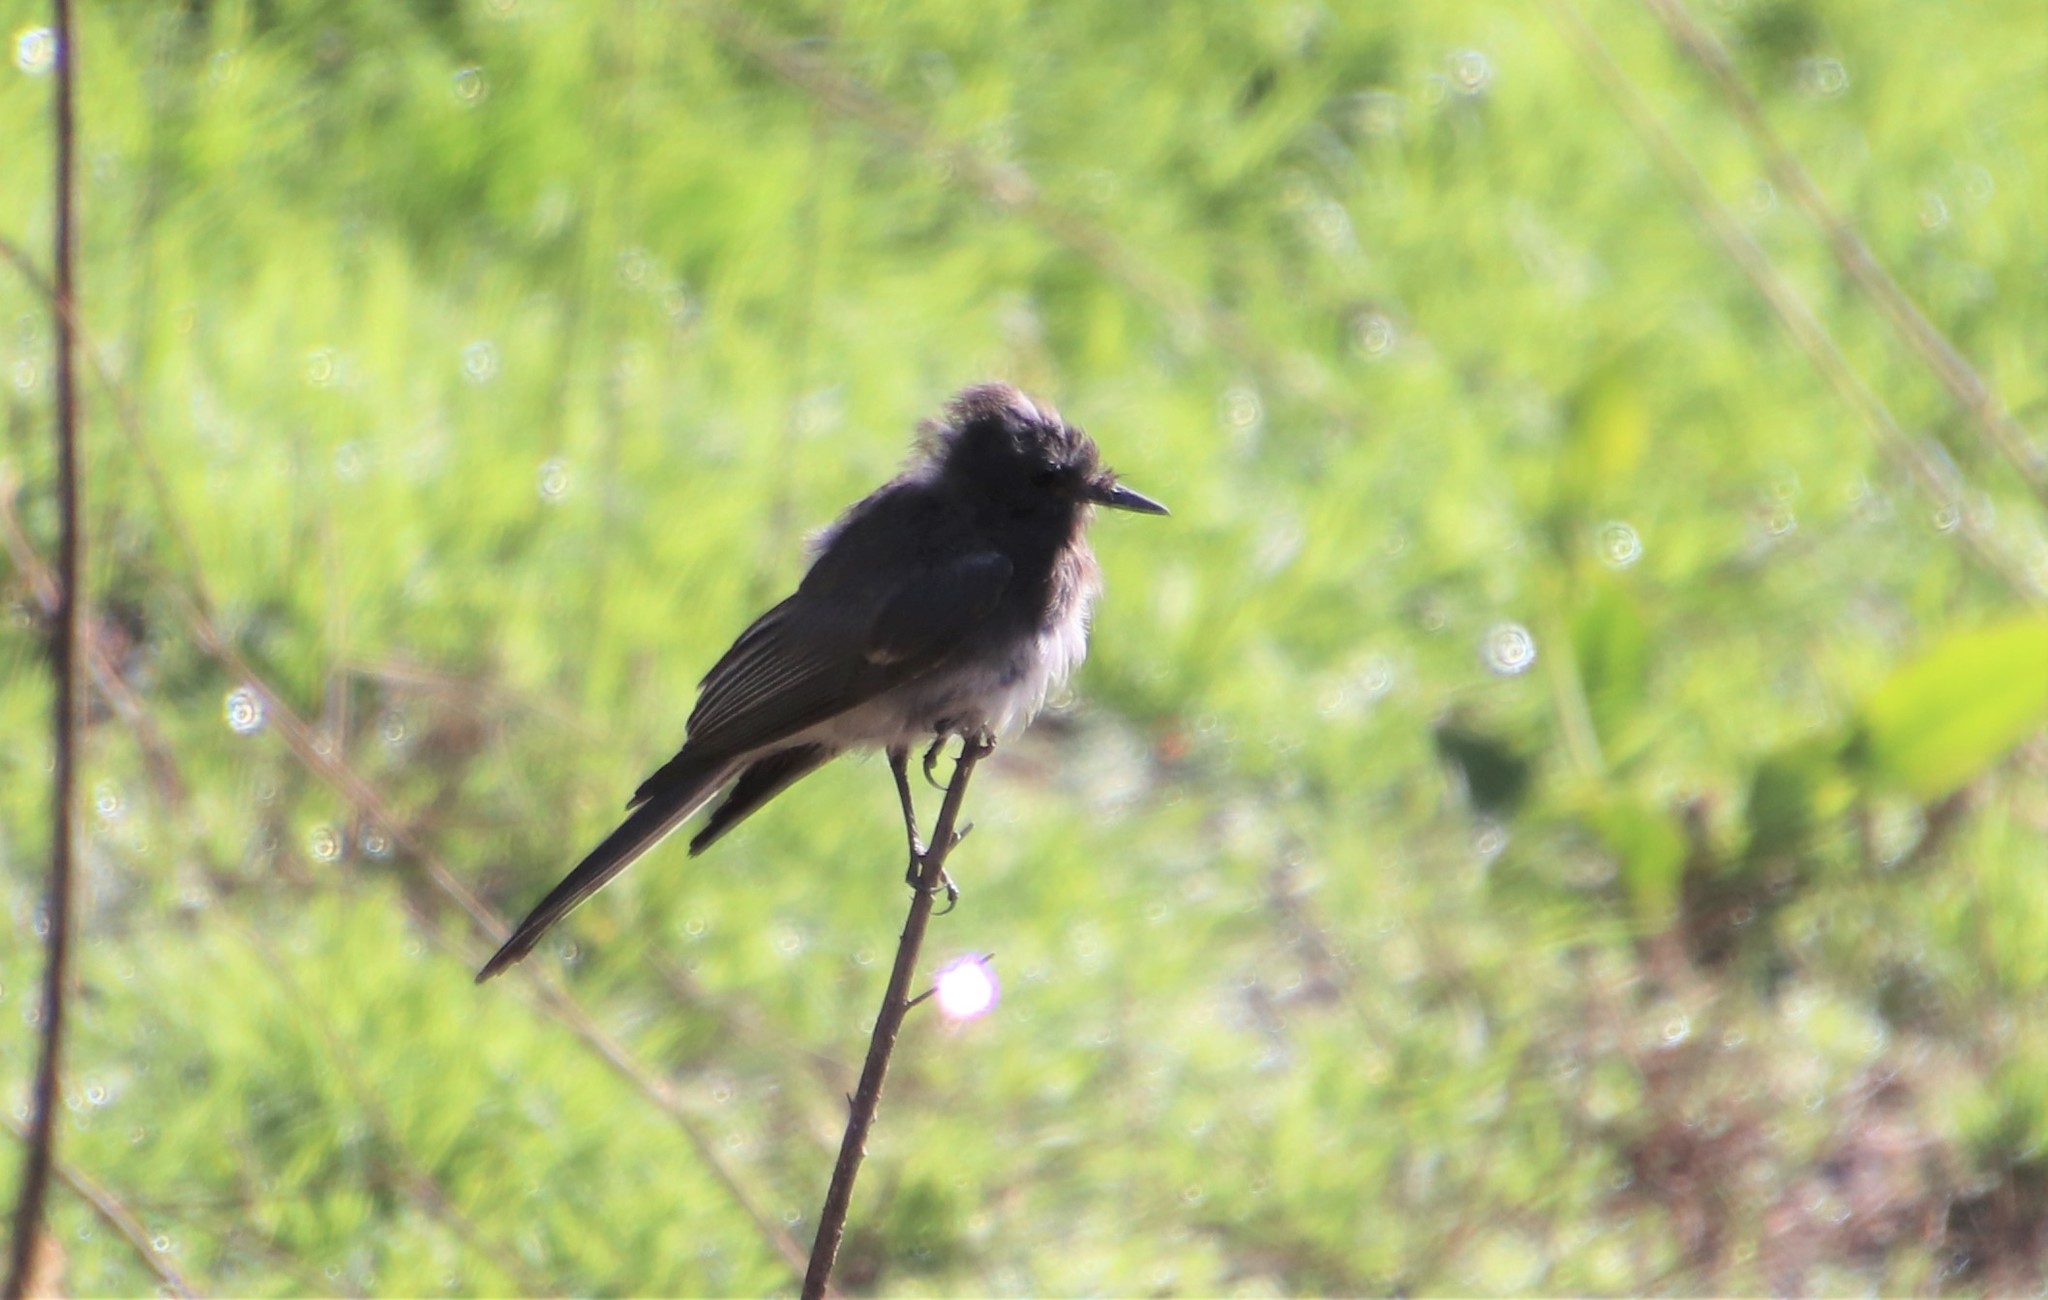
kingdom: Animalia
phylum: Chordata
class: Aves
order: Passeriformes
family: Tyrannidae
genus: Sayornis
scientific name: Sayornis nigricans
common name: Black phoebe
